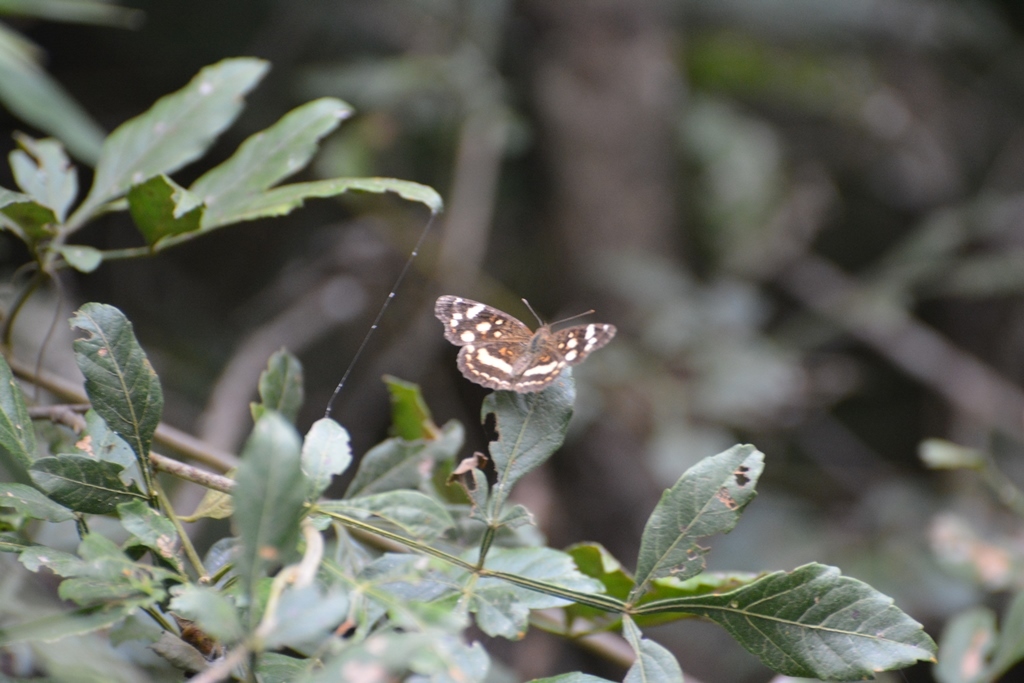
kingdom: Animalia
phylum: Arthropoda
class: Insecta
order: Lepidoptera
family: Nymphalidae
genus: Anthanassa
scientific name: Anthanassa tulcis
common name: Pale-banded crescent
